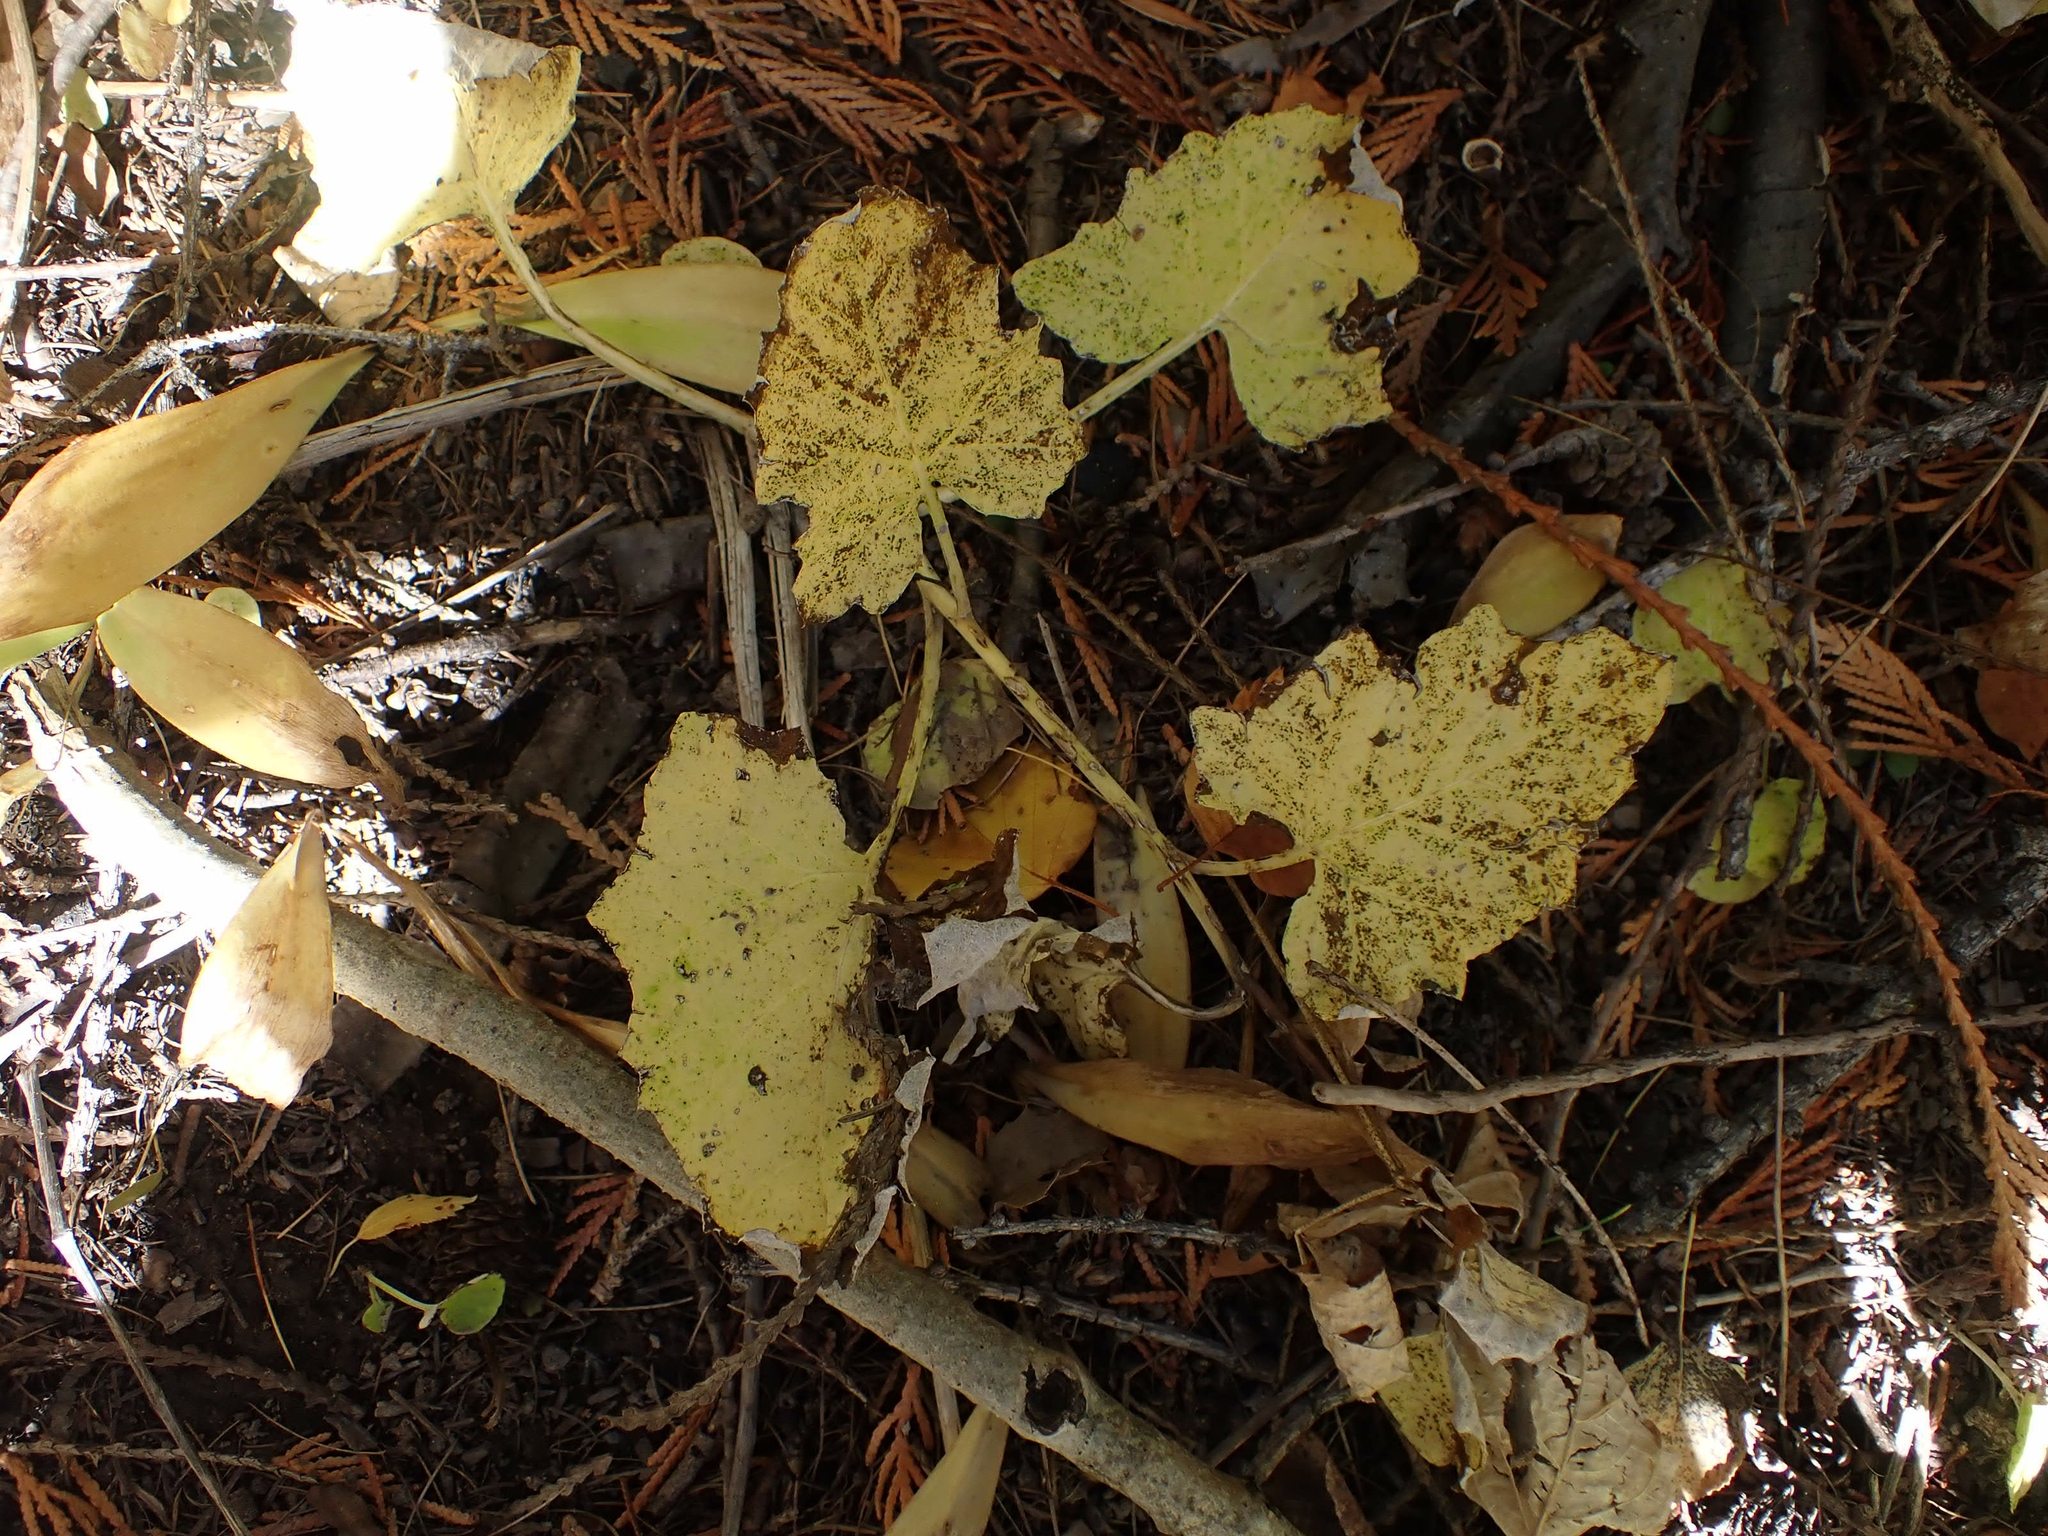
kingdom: Plantae
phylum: Tracheophyta
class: Magnoliopsida
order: Asterales
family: Asteraceae
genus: Adenocaulon
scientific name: Adenocaulon bicolor
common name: Trailplant
